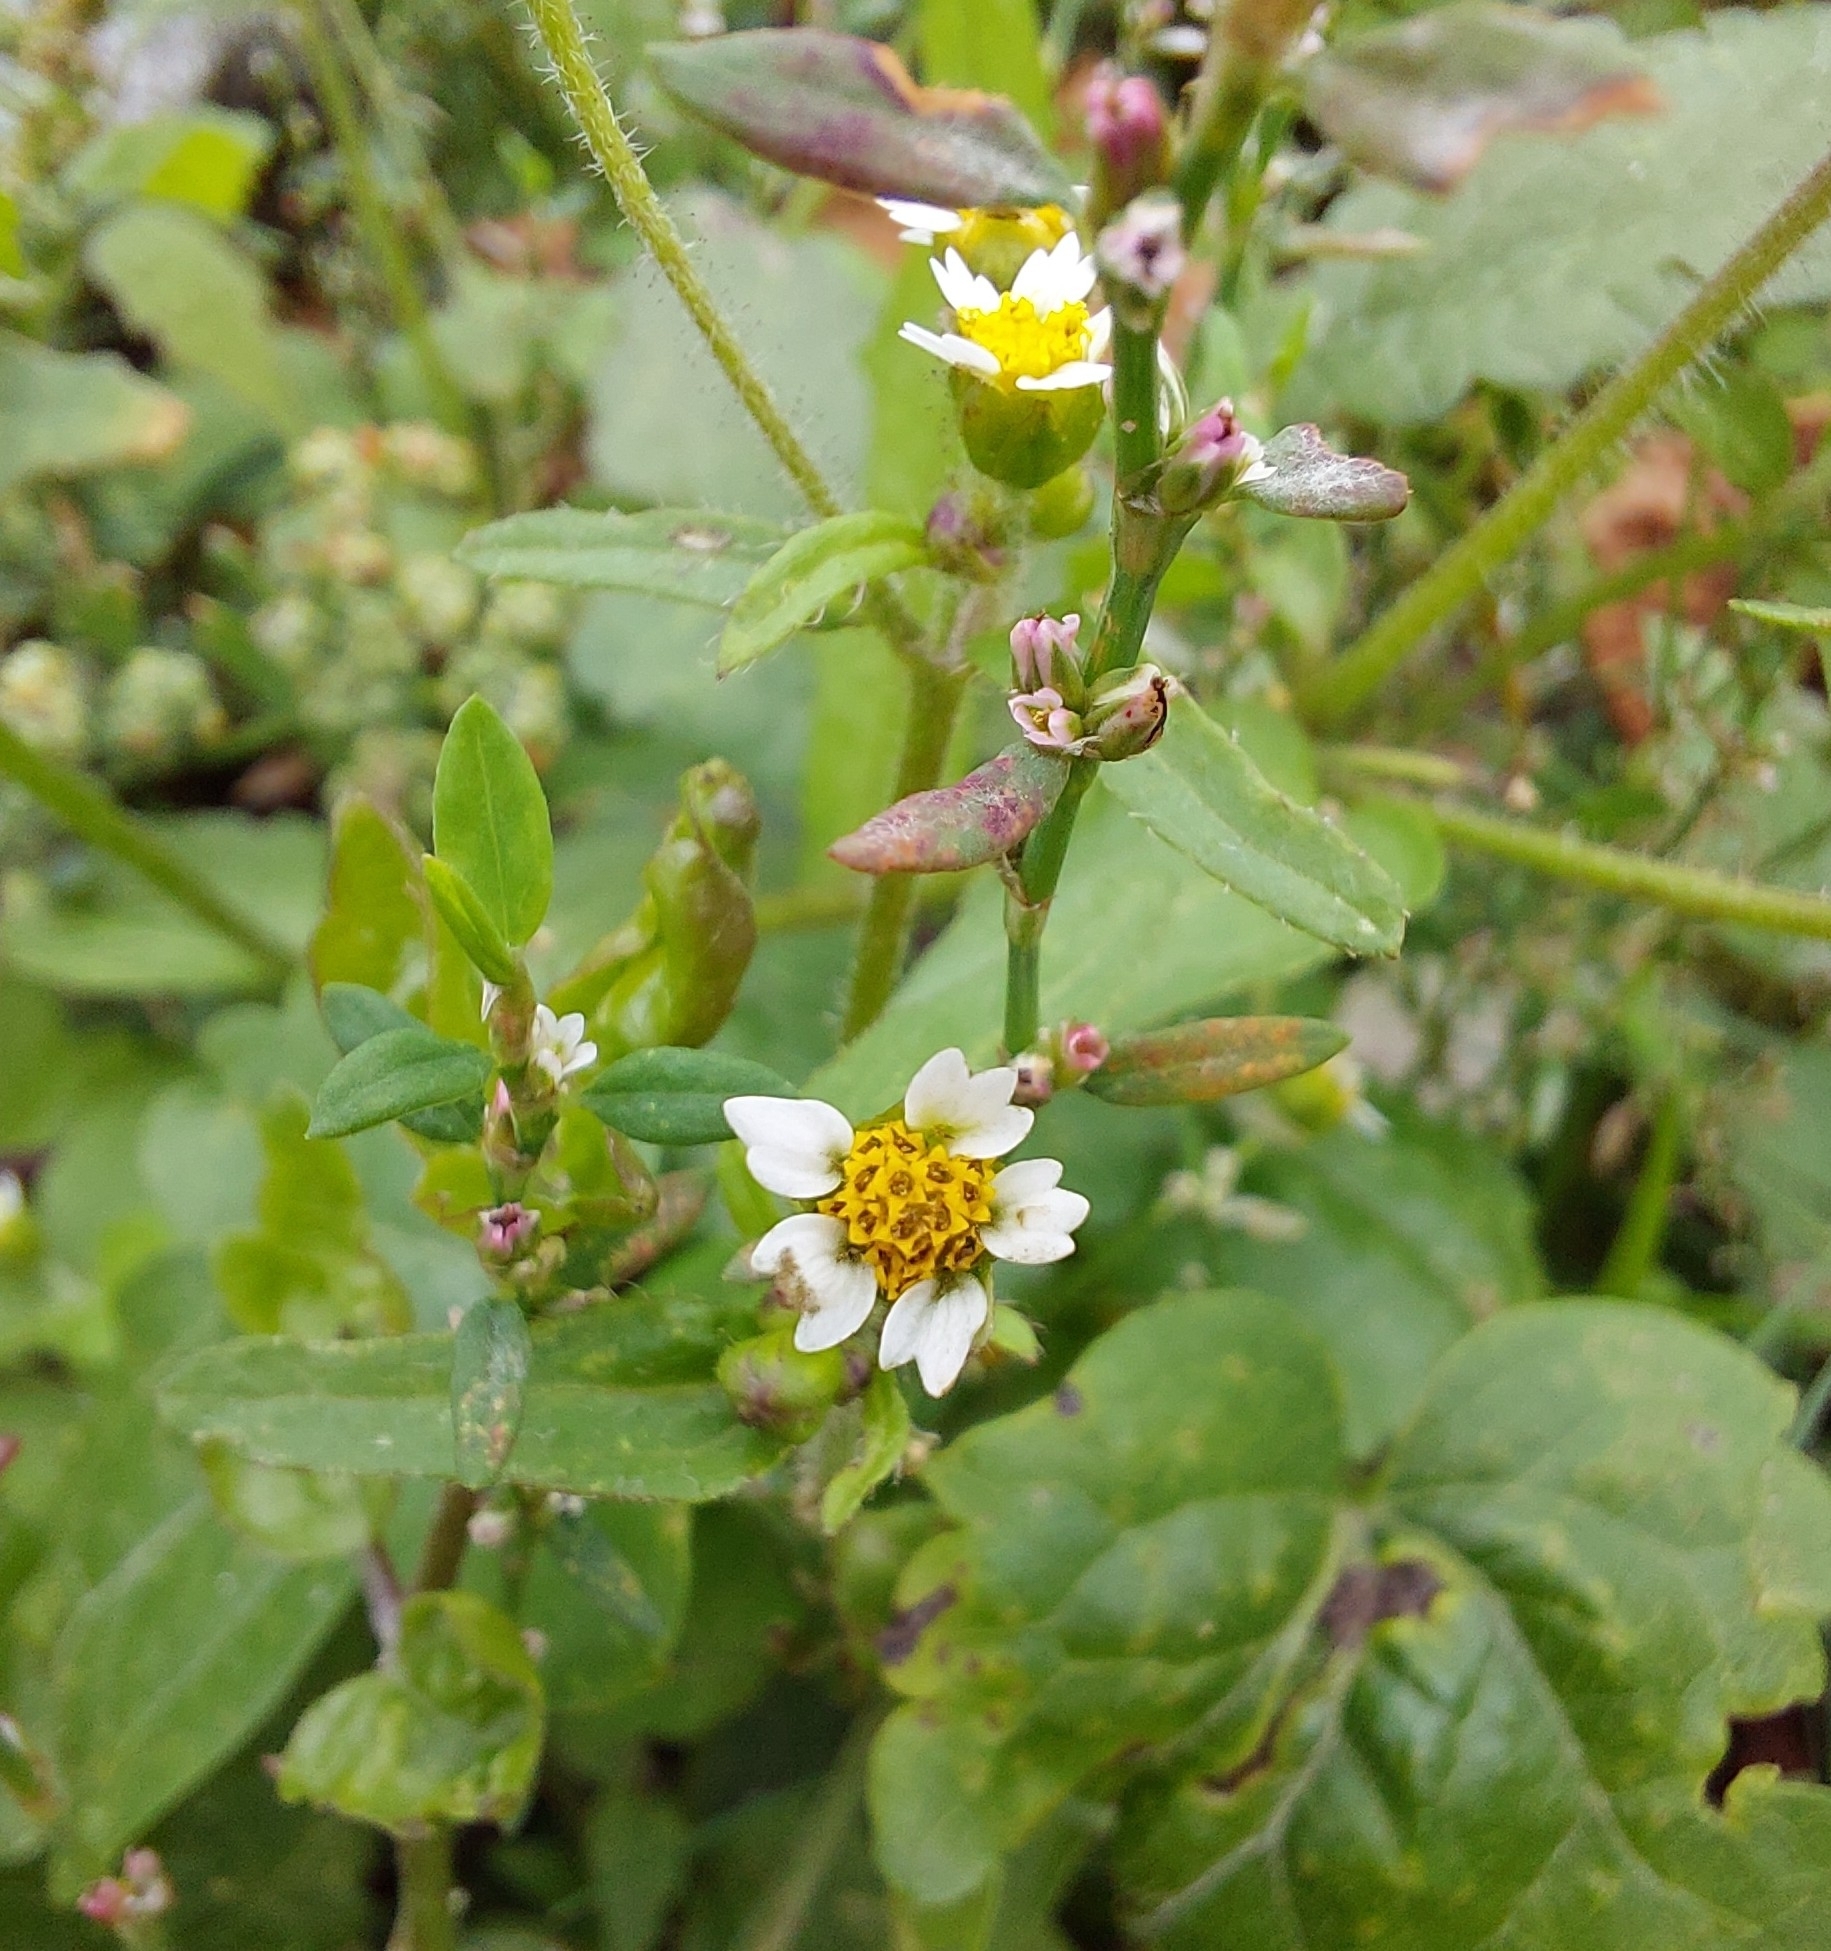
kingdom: Plantae
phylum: Tracheophyta
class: Magnoliopsida
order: Asterales
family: Asteraceae
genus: Galinsoga
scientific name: Galinsoga quadriradiata
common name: Shaggy soldier
